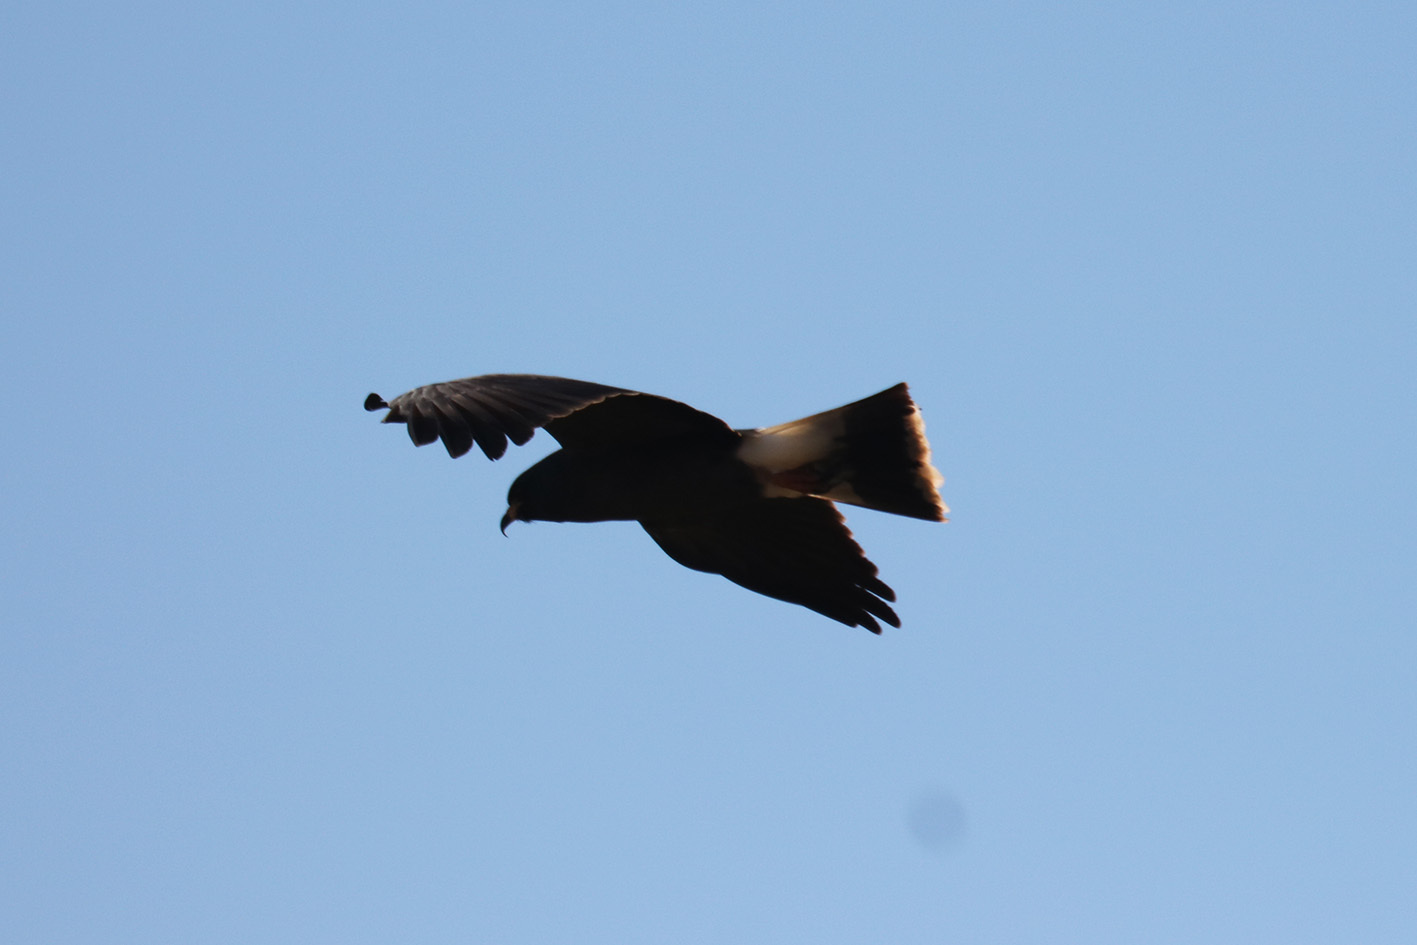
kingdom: Animalia
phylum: Chordata
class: Aves
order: Accipitriformes
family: Accipitridae
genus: Rostrhamus
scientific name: Rostrhamus sociabilis
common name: Snail kite
